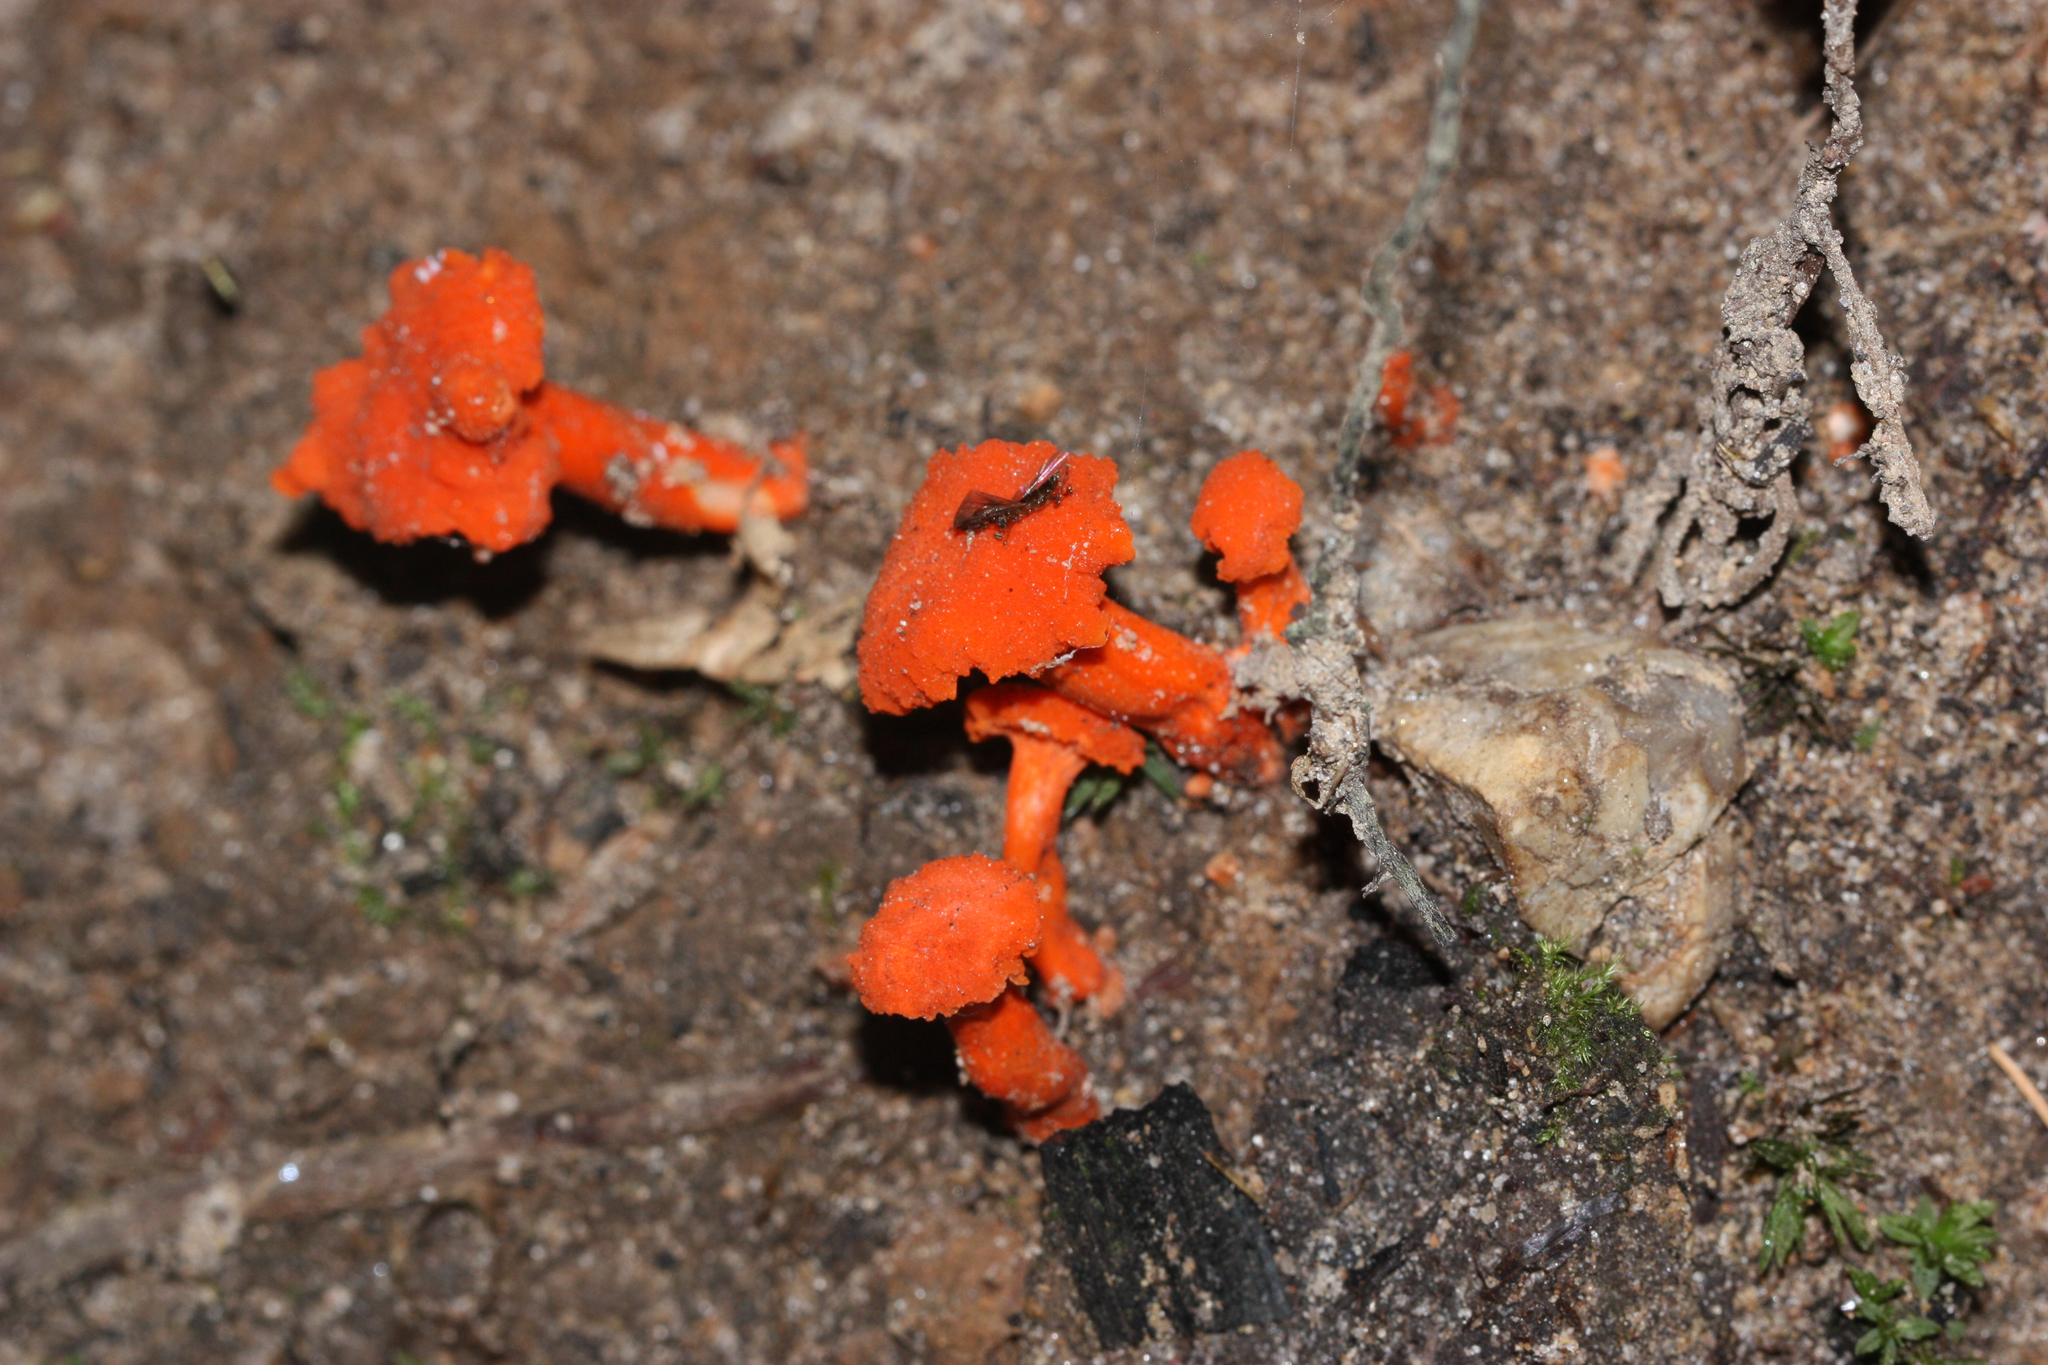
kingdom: Fungi
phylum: Basidiomycota
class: Agaricomycetes
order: Cantharellales
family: Hydnaceae
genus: Cantharellus
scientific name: Cantharellus cinnabarinus
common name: Cinnabar chanterelle
